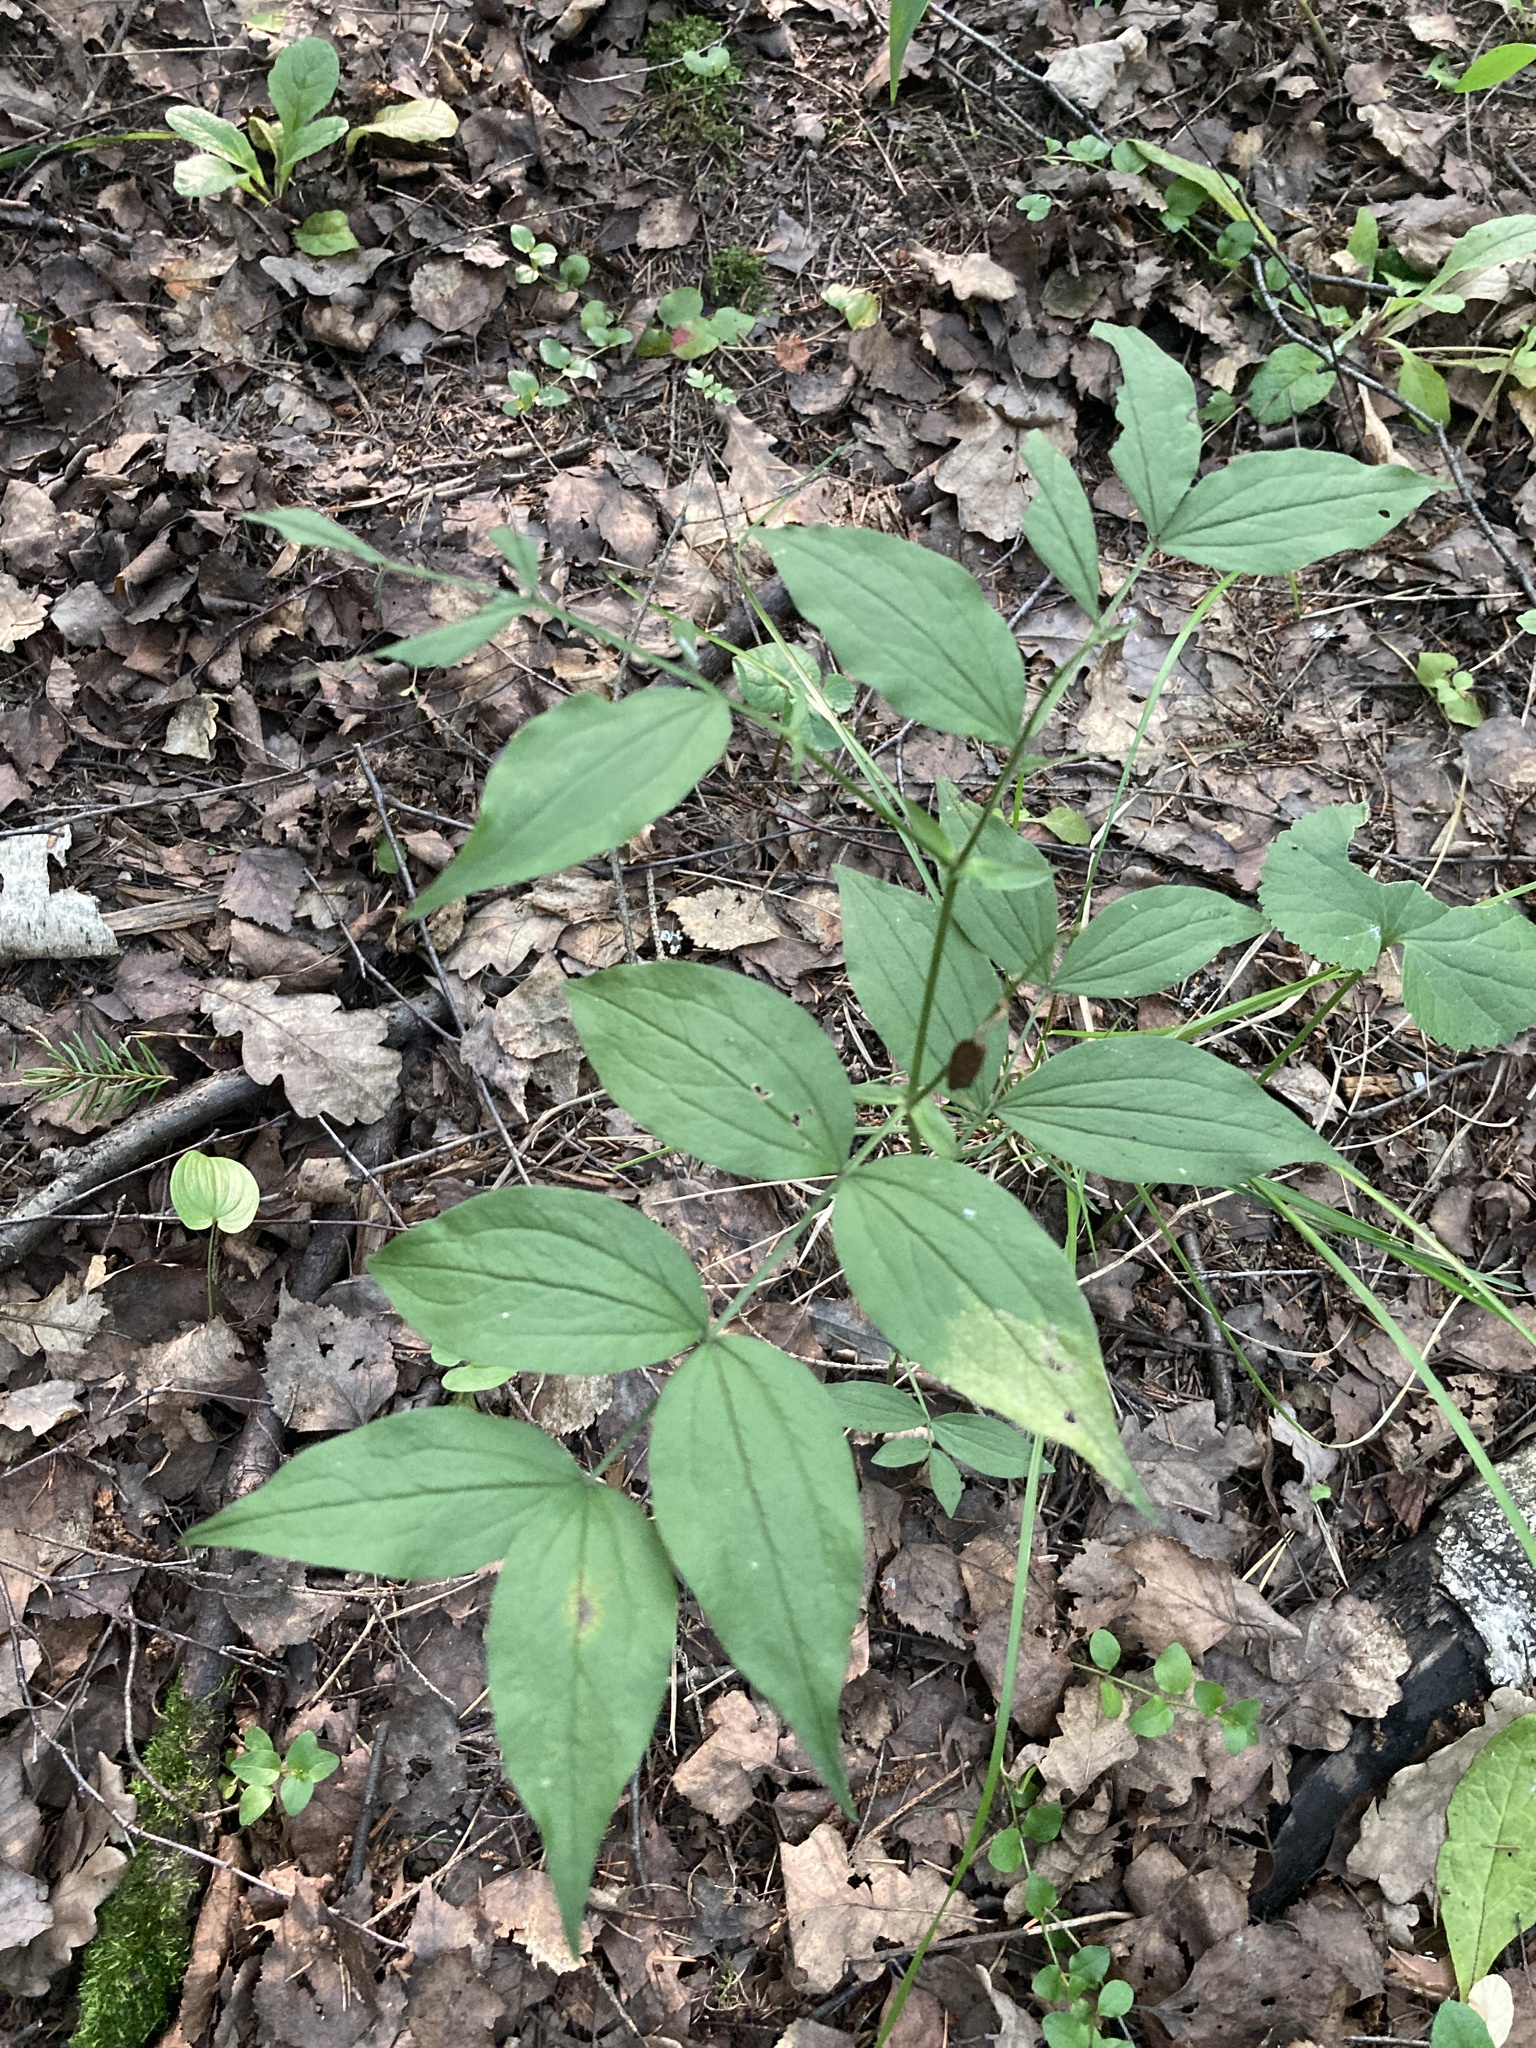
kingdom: Plantae
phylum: Tracheophyta
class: Magnoliopsida
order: Fabales
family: Fabaceae
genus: Lathyrus
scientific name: Lathyrus vernus
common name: Spring pea
